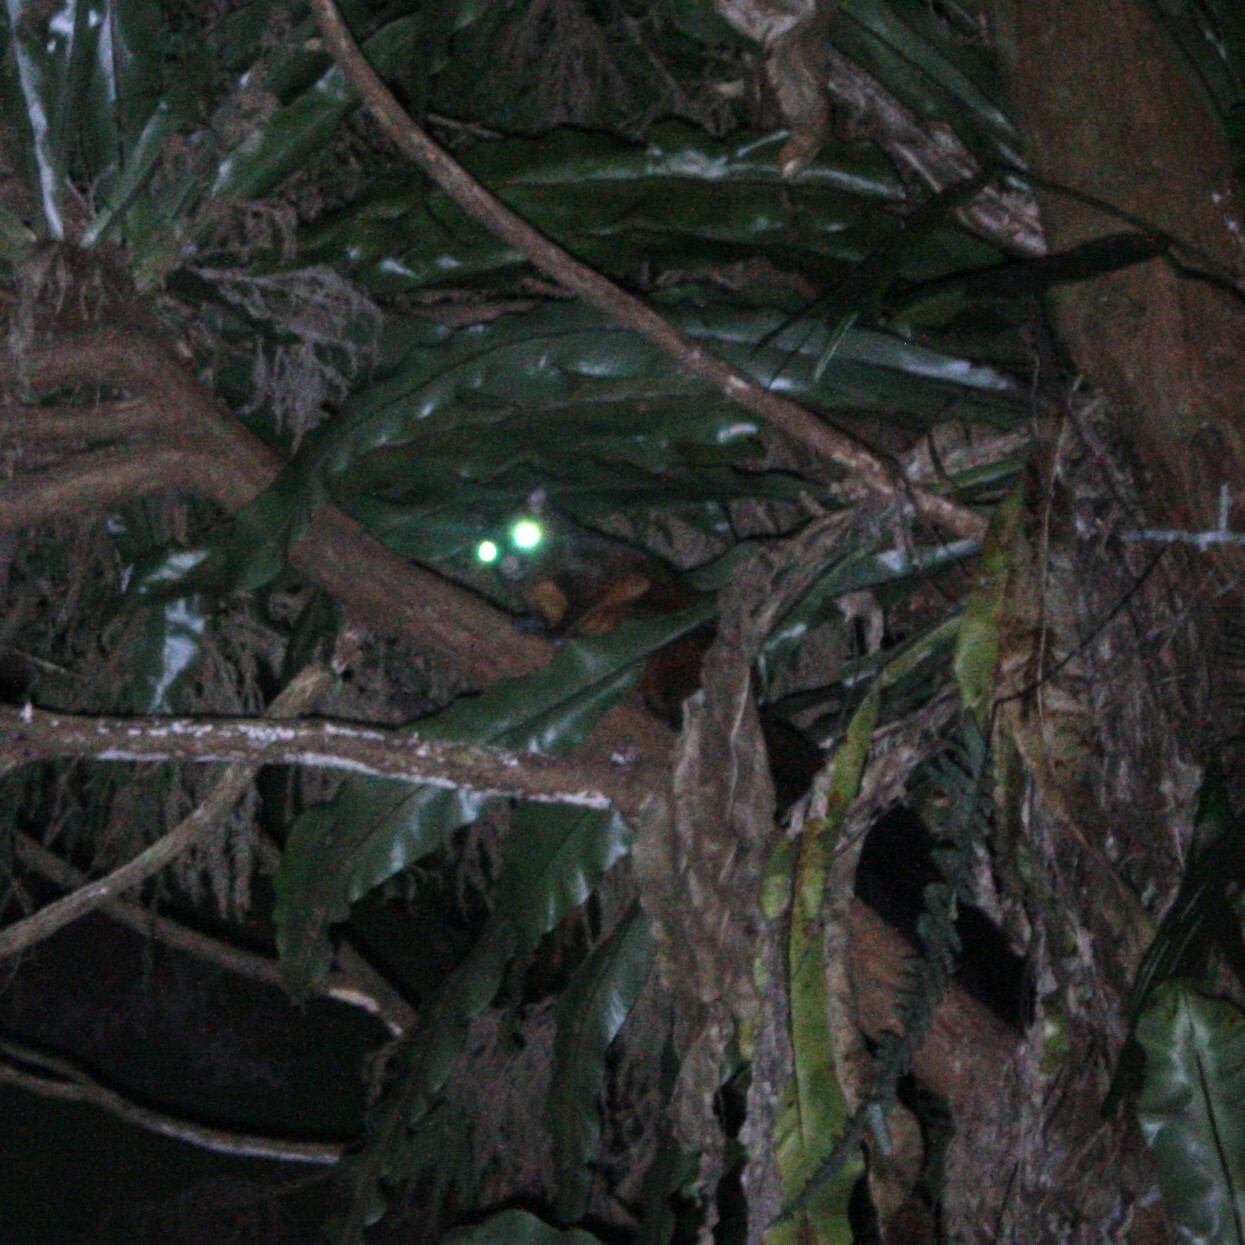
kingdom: Animalia
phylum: Chordata
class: Mammalia
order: Rodentia
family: Sciuridae
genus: Petaurista
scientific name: Petaurista
